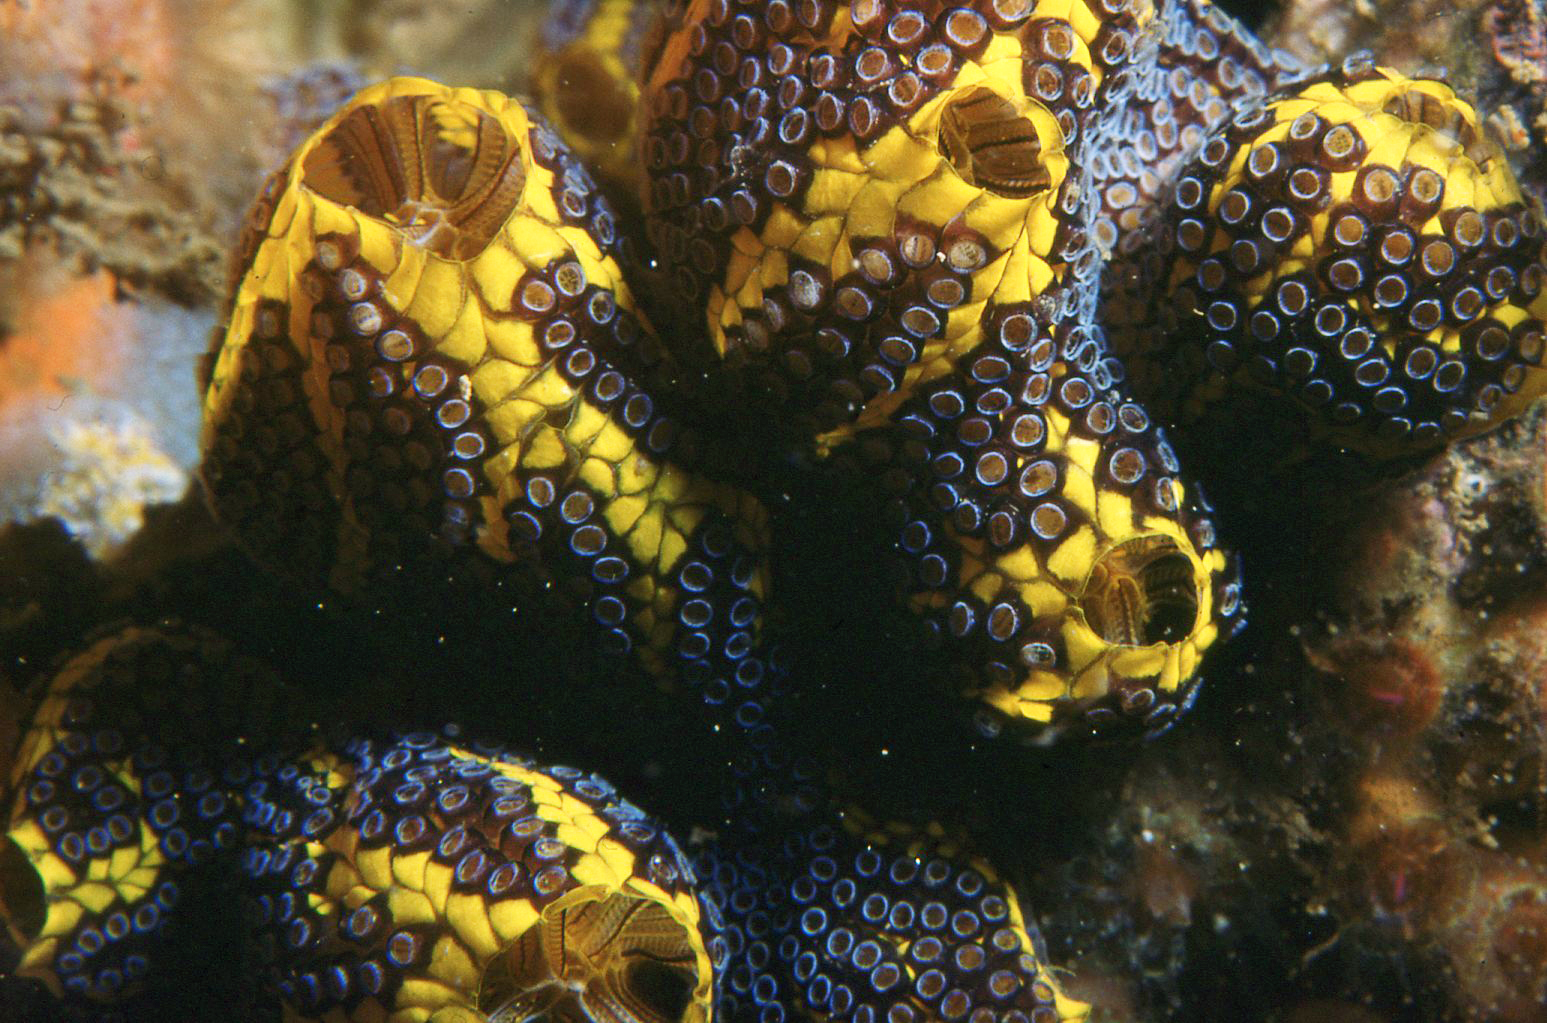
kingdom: Animalia
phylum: Chordata
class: Ascidiacea
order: Stolidobranchia
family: Styelidae
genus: Botrylloides
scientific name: Botrylloides magnicoecus
